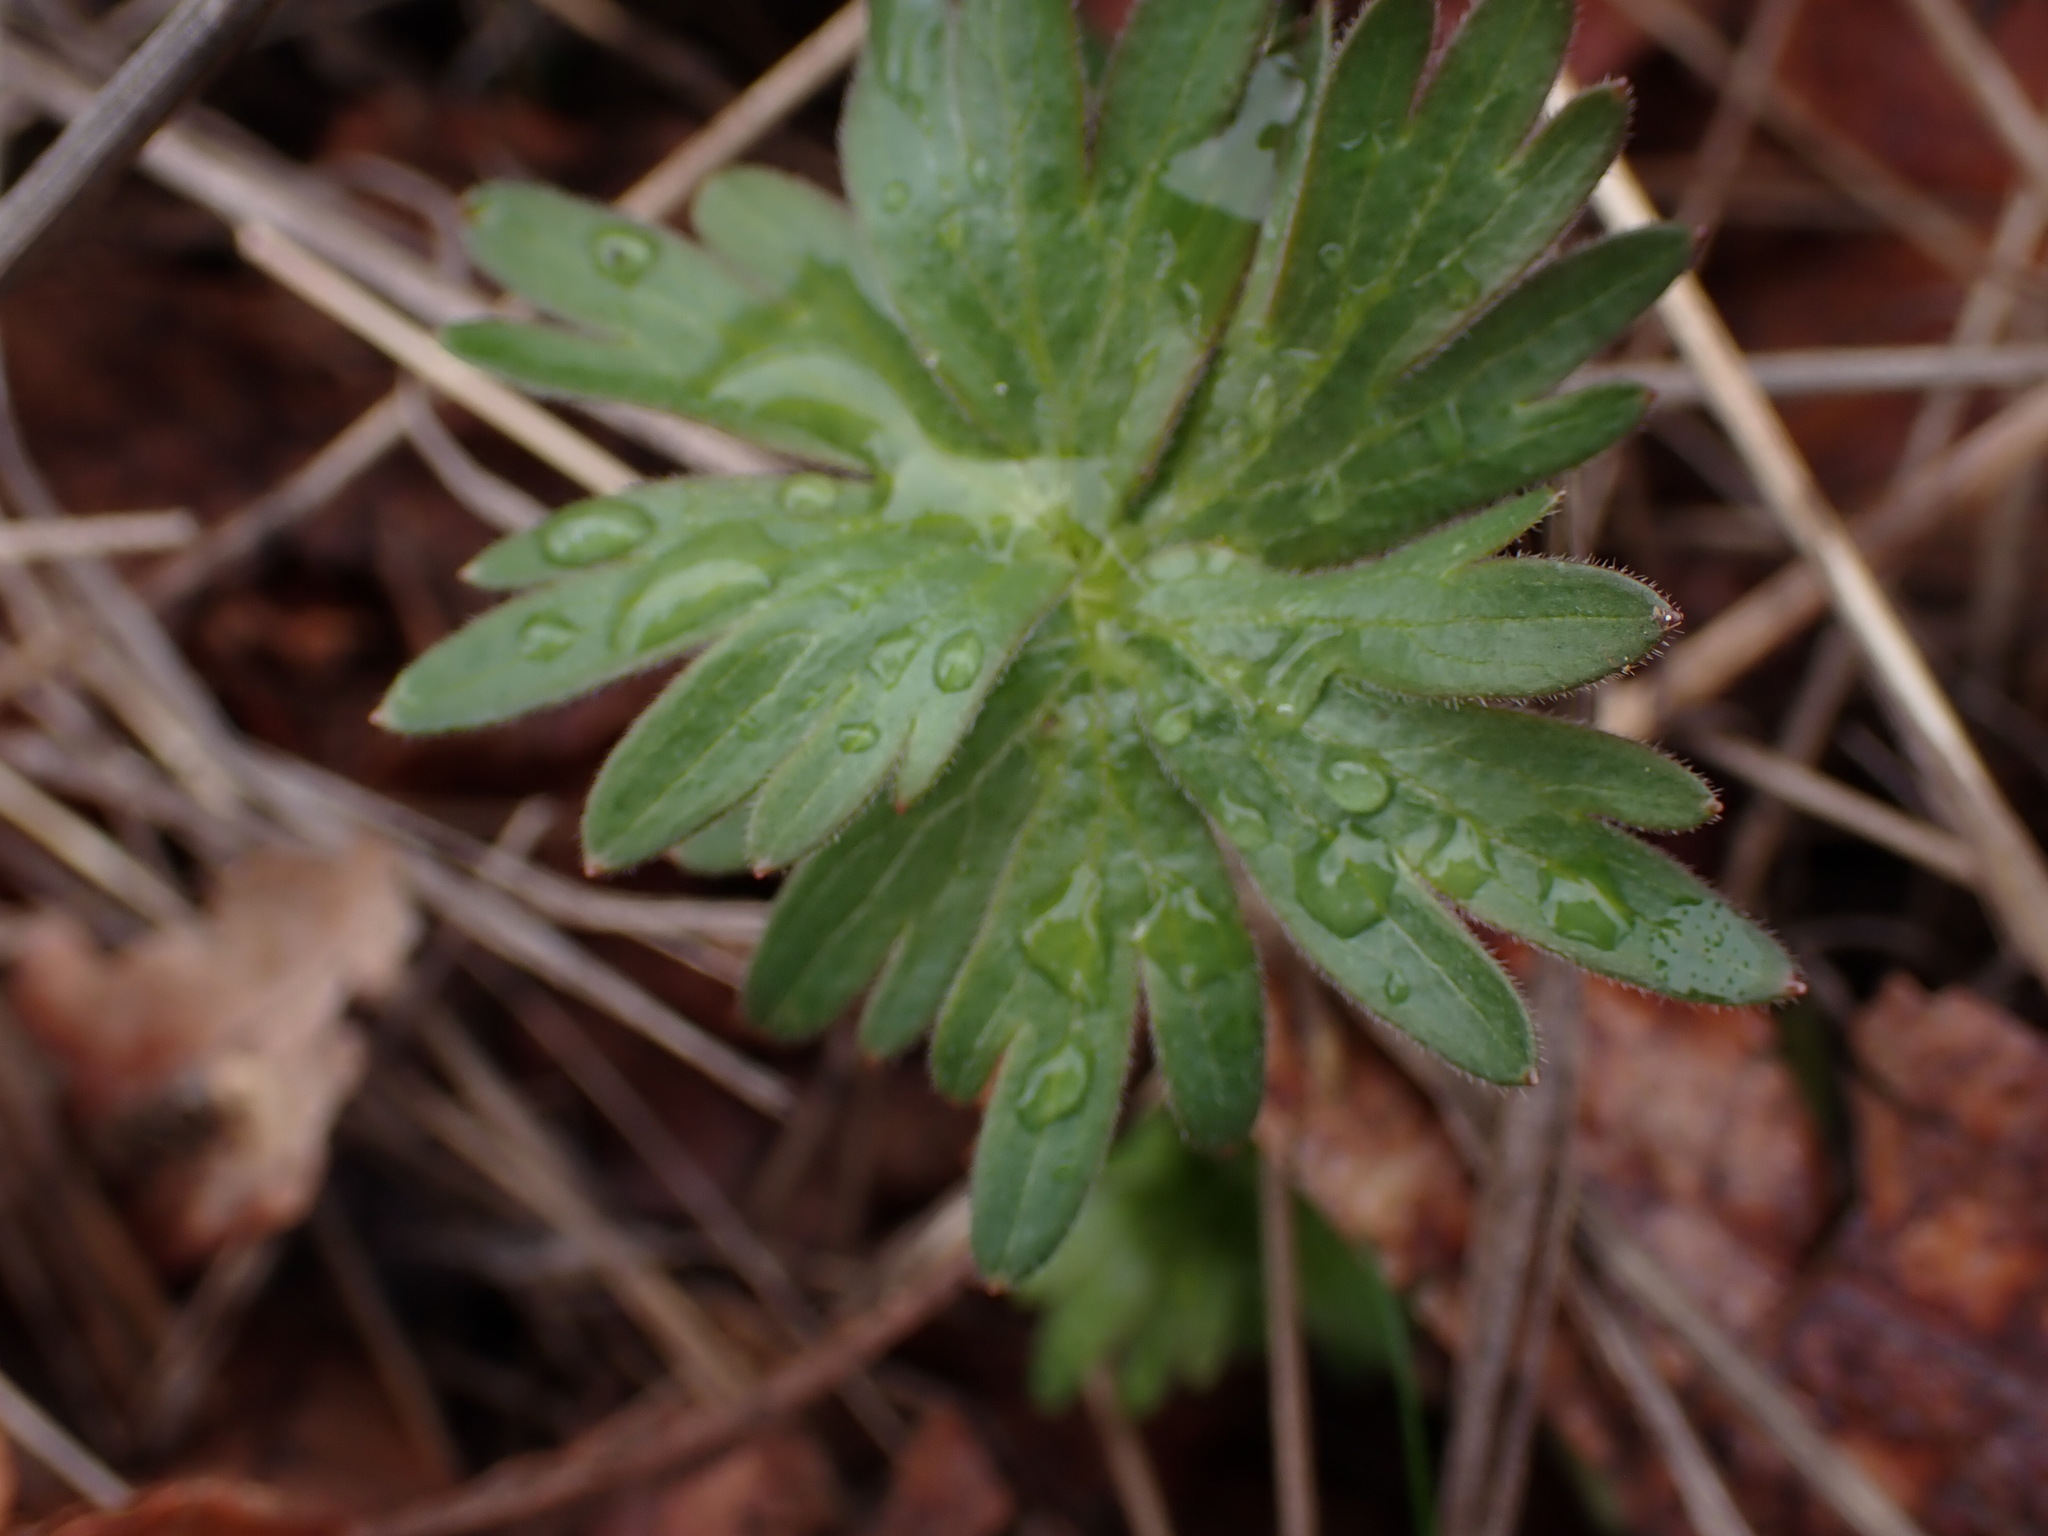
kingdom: Plantae
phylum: Tracheophyta
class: Magnoliopsida
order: Ranunculales
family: Ranunculaceae
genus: Delphinium
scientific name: Delphinium menziesii
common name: Menzies's larkspur
